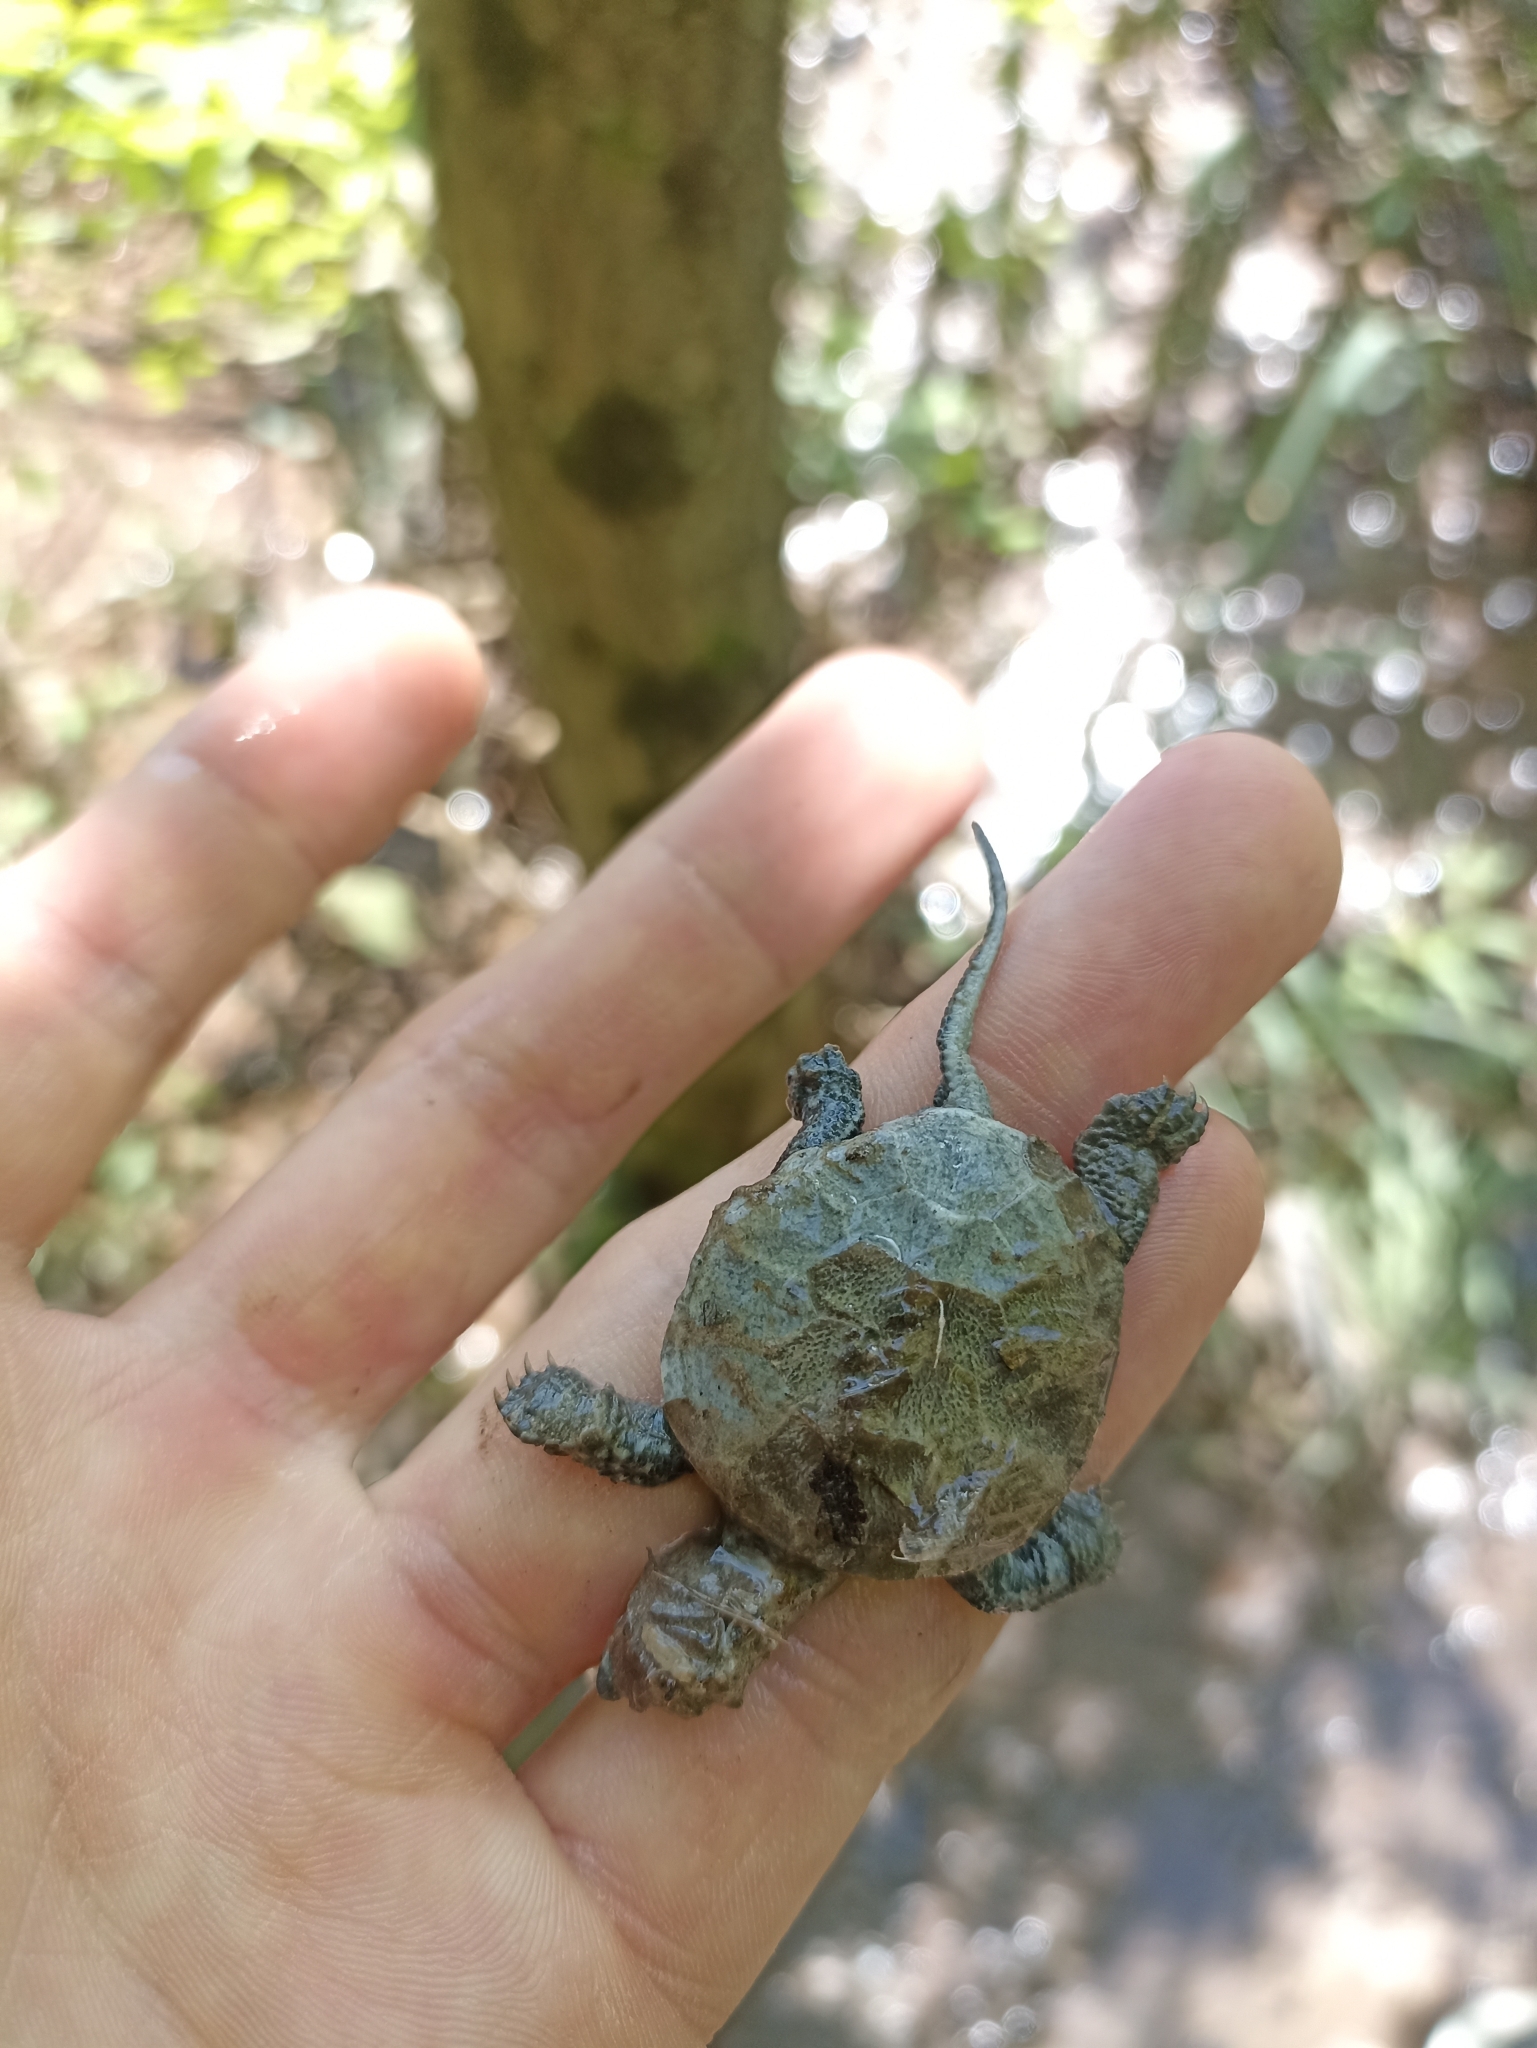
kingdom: Animalia
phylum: Chordata
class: Testudines
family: Emydidae
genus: Emys
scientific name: Emys orbicularis
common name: European pond turtle
